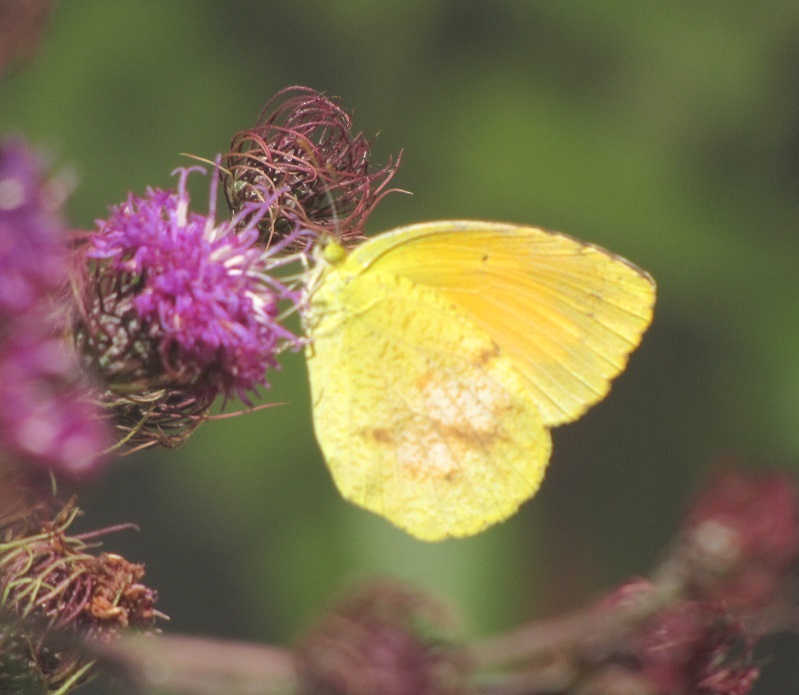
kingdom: Animalia
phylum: Arthropoda
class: Insecta
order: Lepidoptera
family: Pieridae
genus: Abaeis
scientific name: Abaeis nicippe
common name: Sleepy orange
